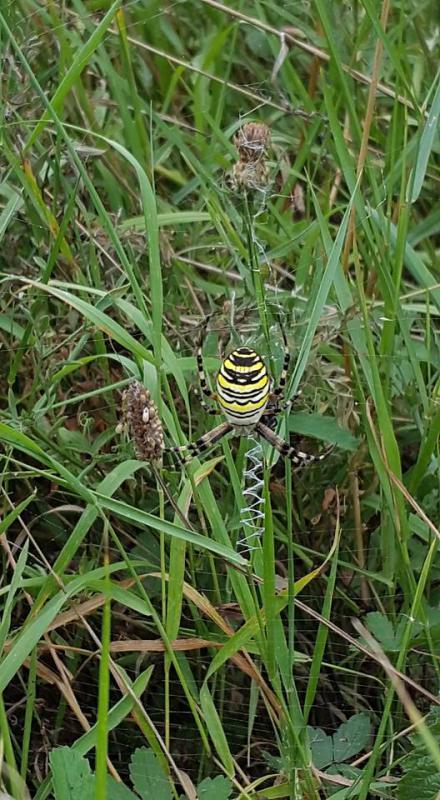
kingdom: Animalia
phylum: Arthropoda
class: Arachnida
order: Araneae
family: Araneidae
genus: Argiope
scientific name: Argiope bruennichi
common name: Wasp spider
